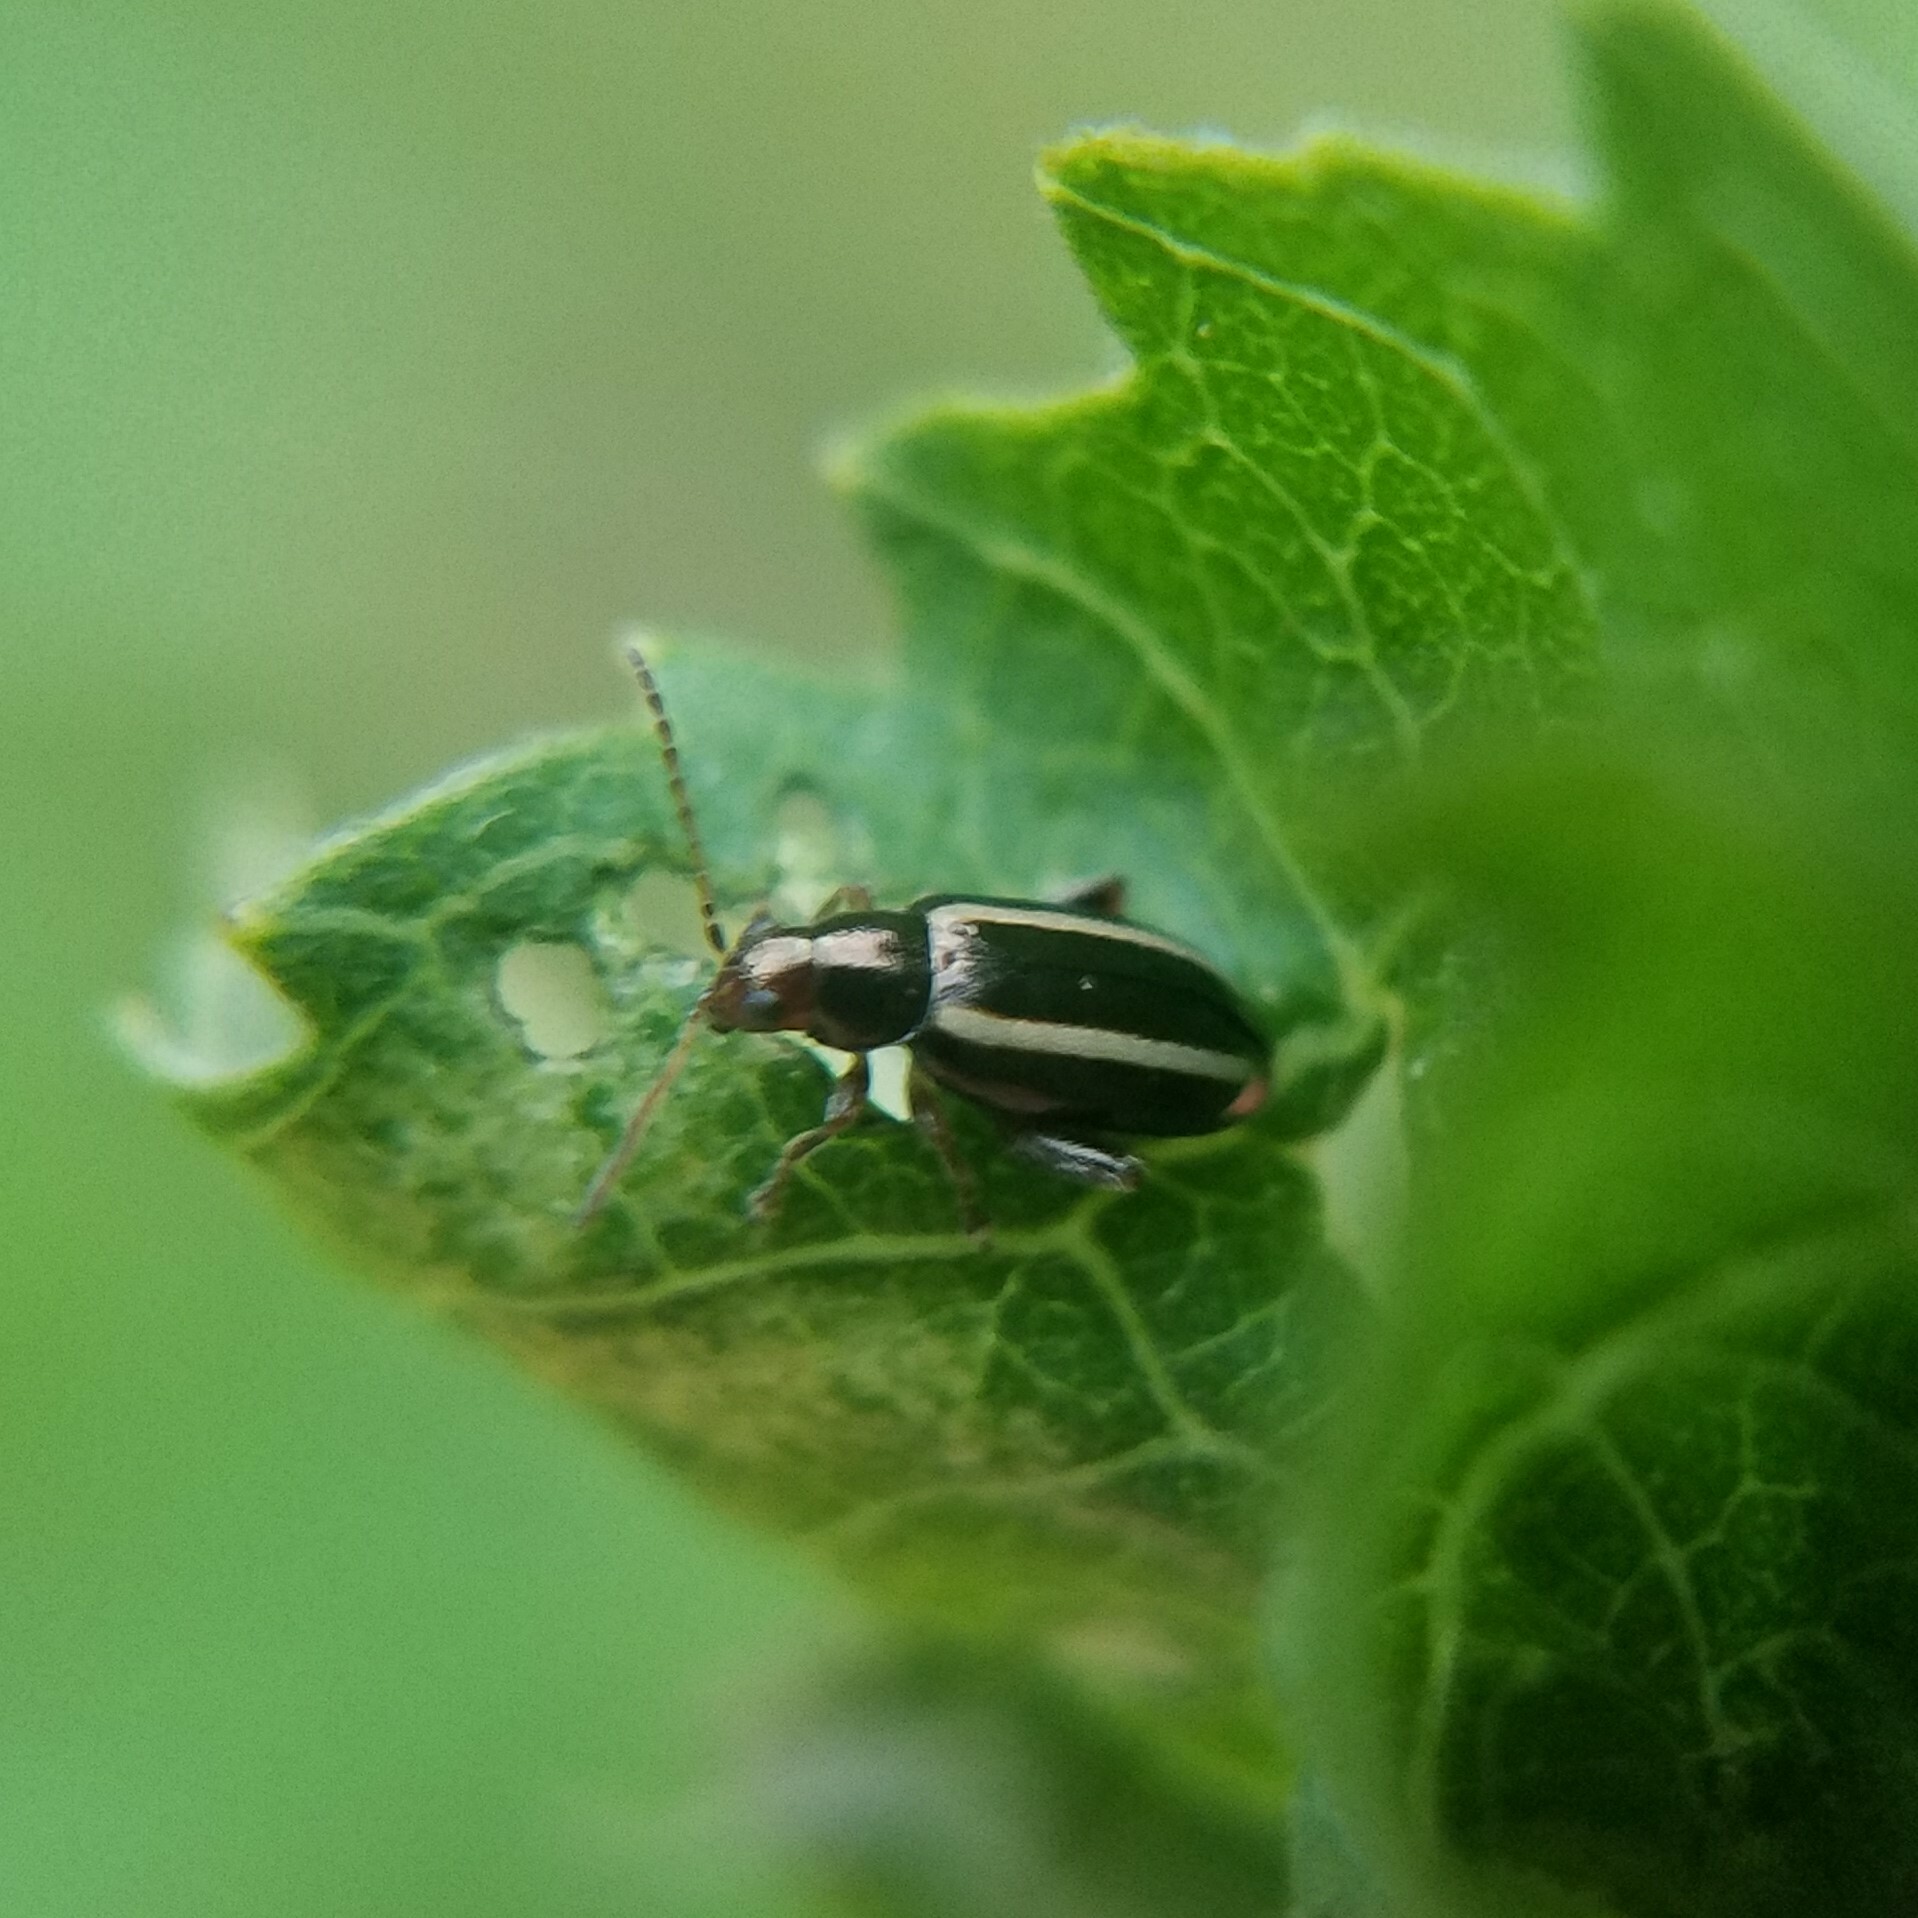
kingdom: Animalia
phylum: Arthropoda
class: Insecta
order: Coleoptera
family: Chrysomelidae
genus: Systena
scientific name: Systena elongata
